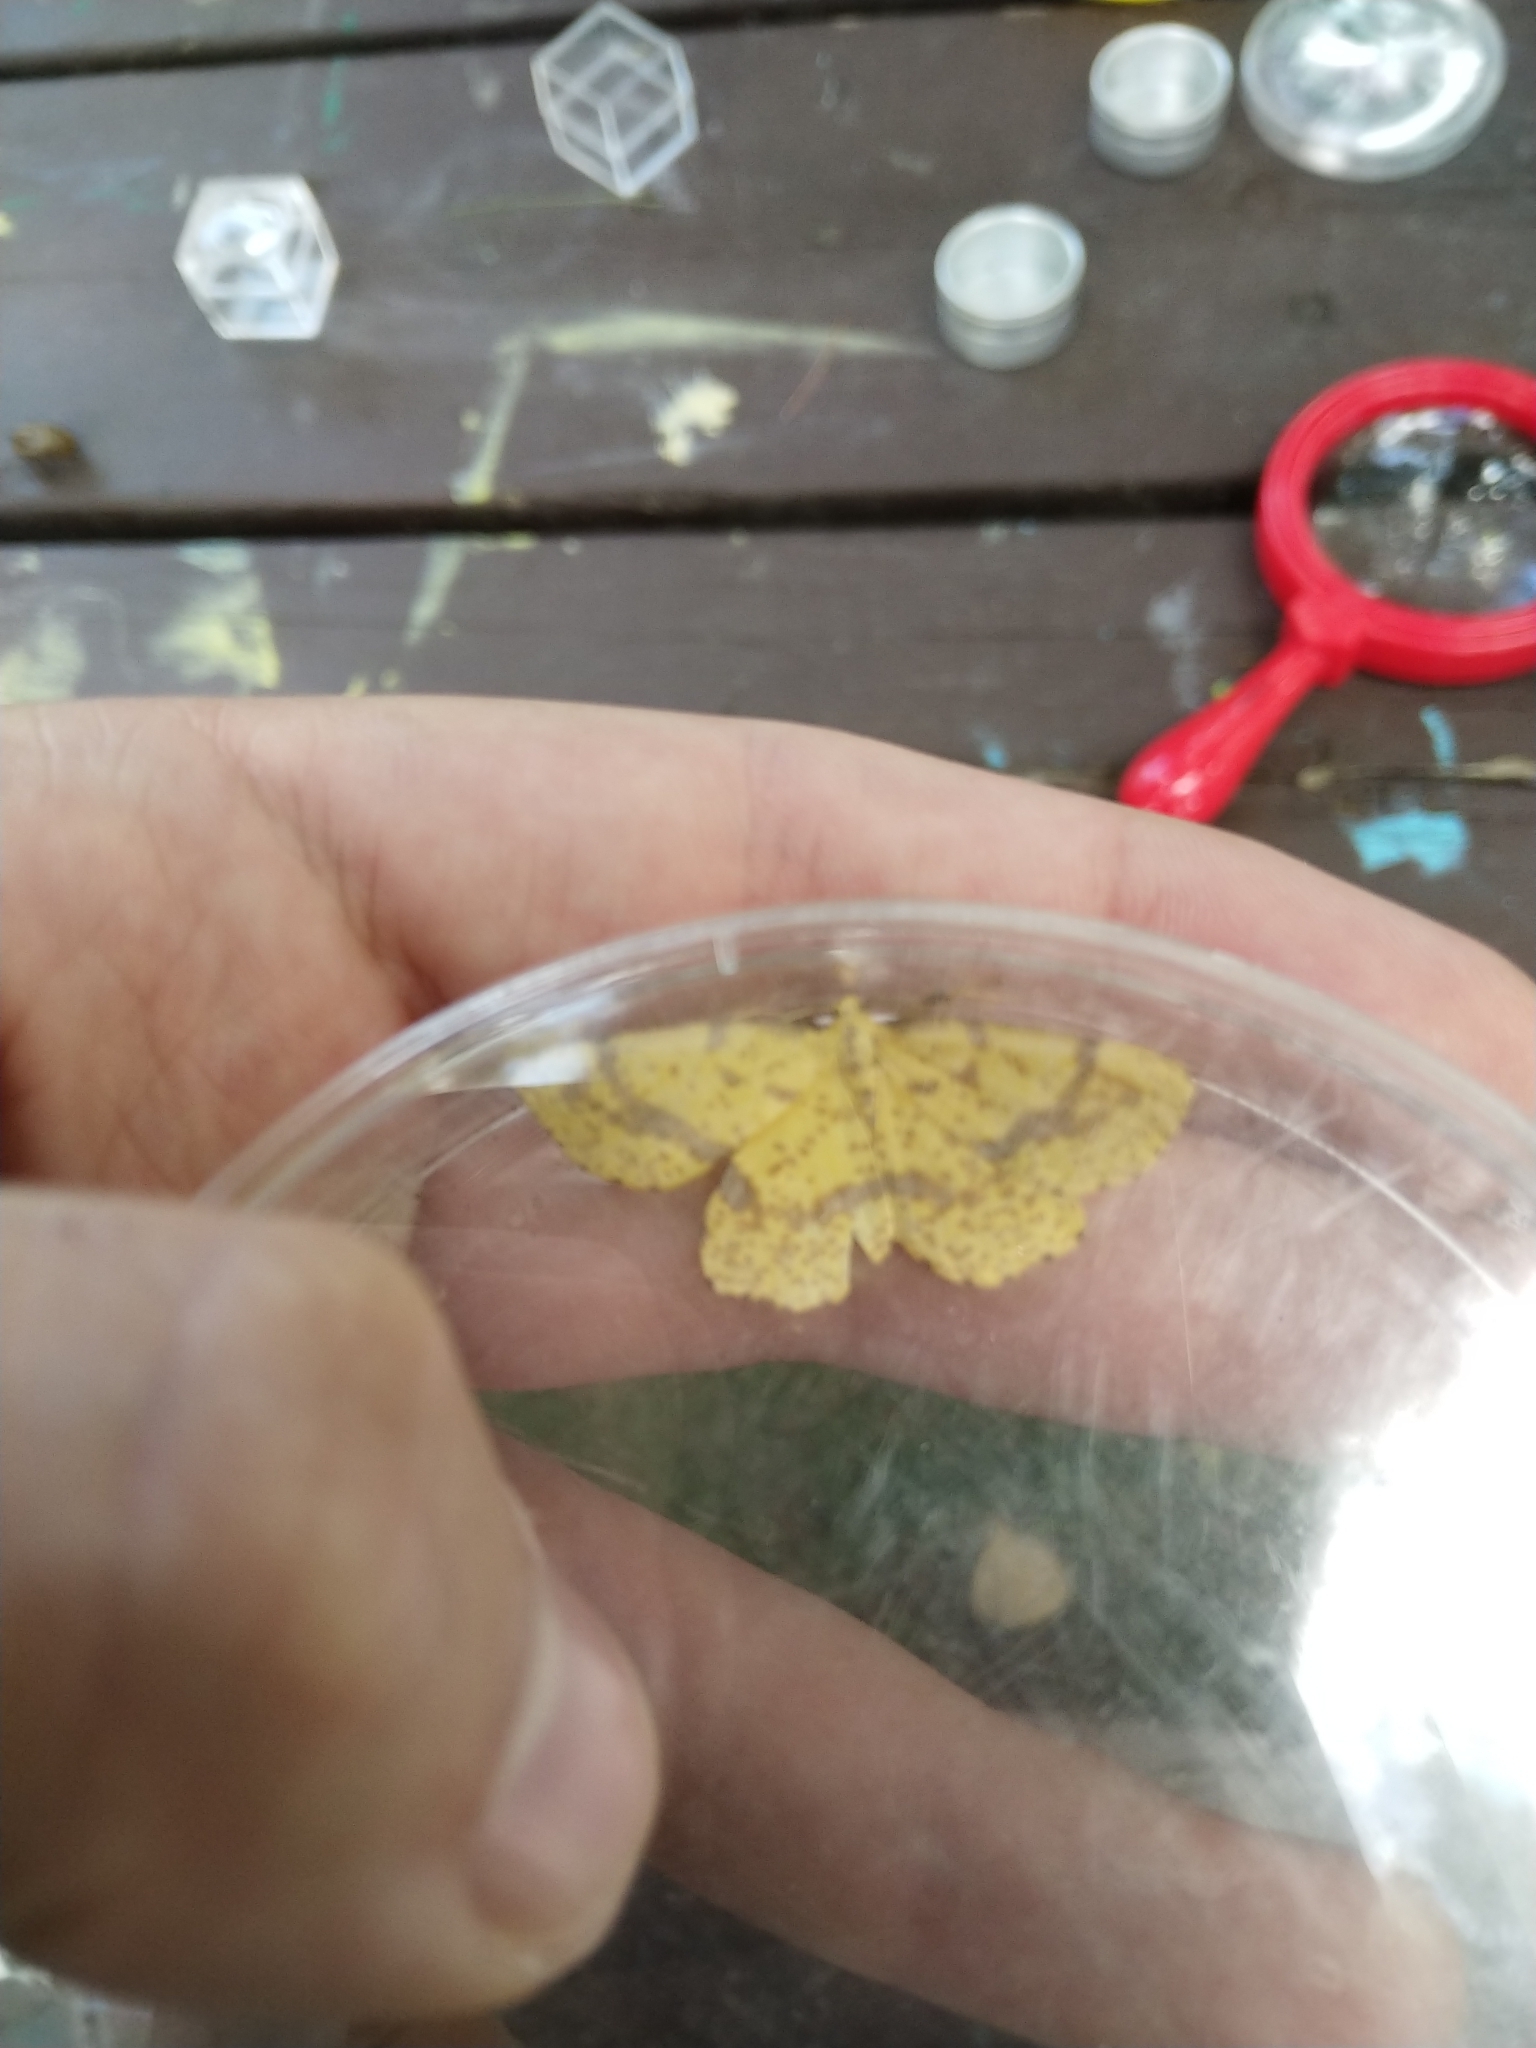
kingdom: Animalia
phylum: Arthropoda
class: Insecta
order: Lepidoptera
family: Geometridae
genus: Xanthotype
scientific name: Xanthotype
